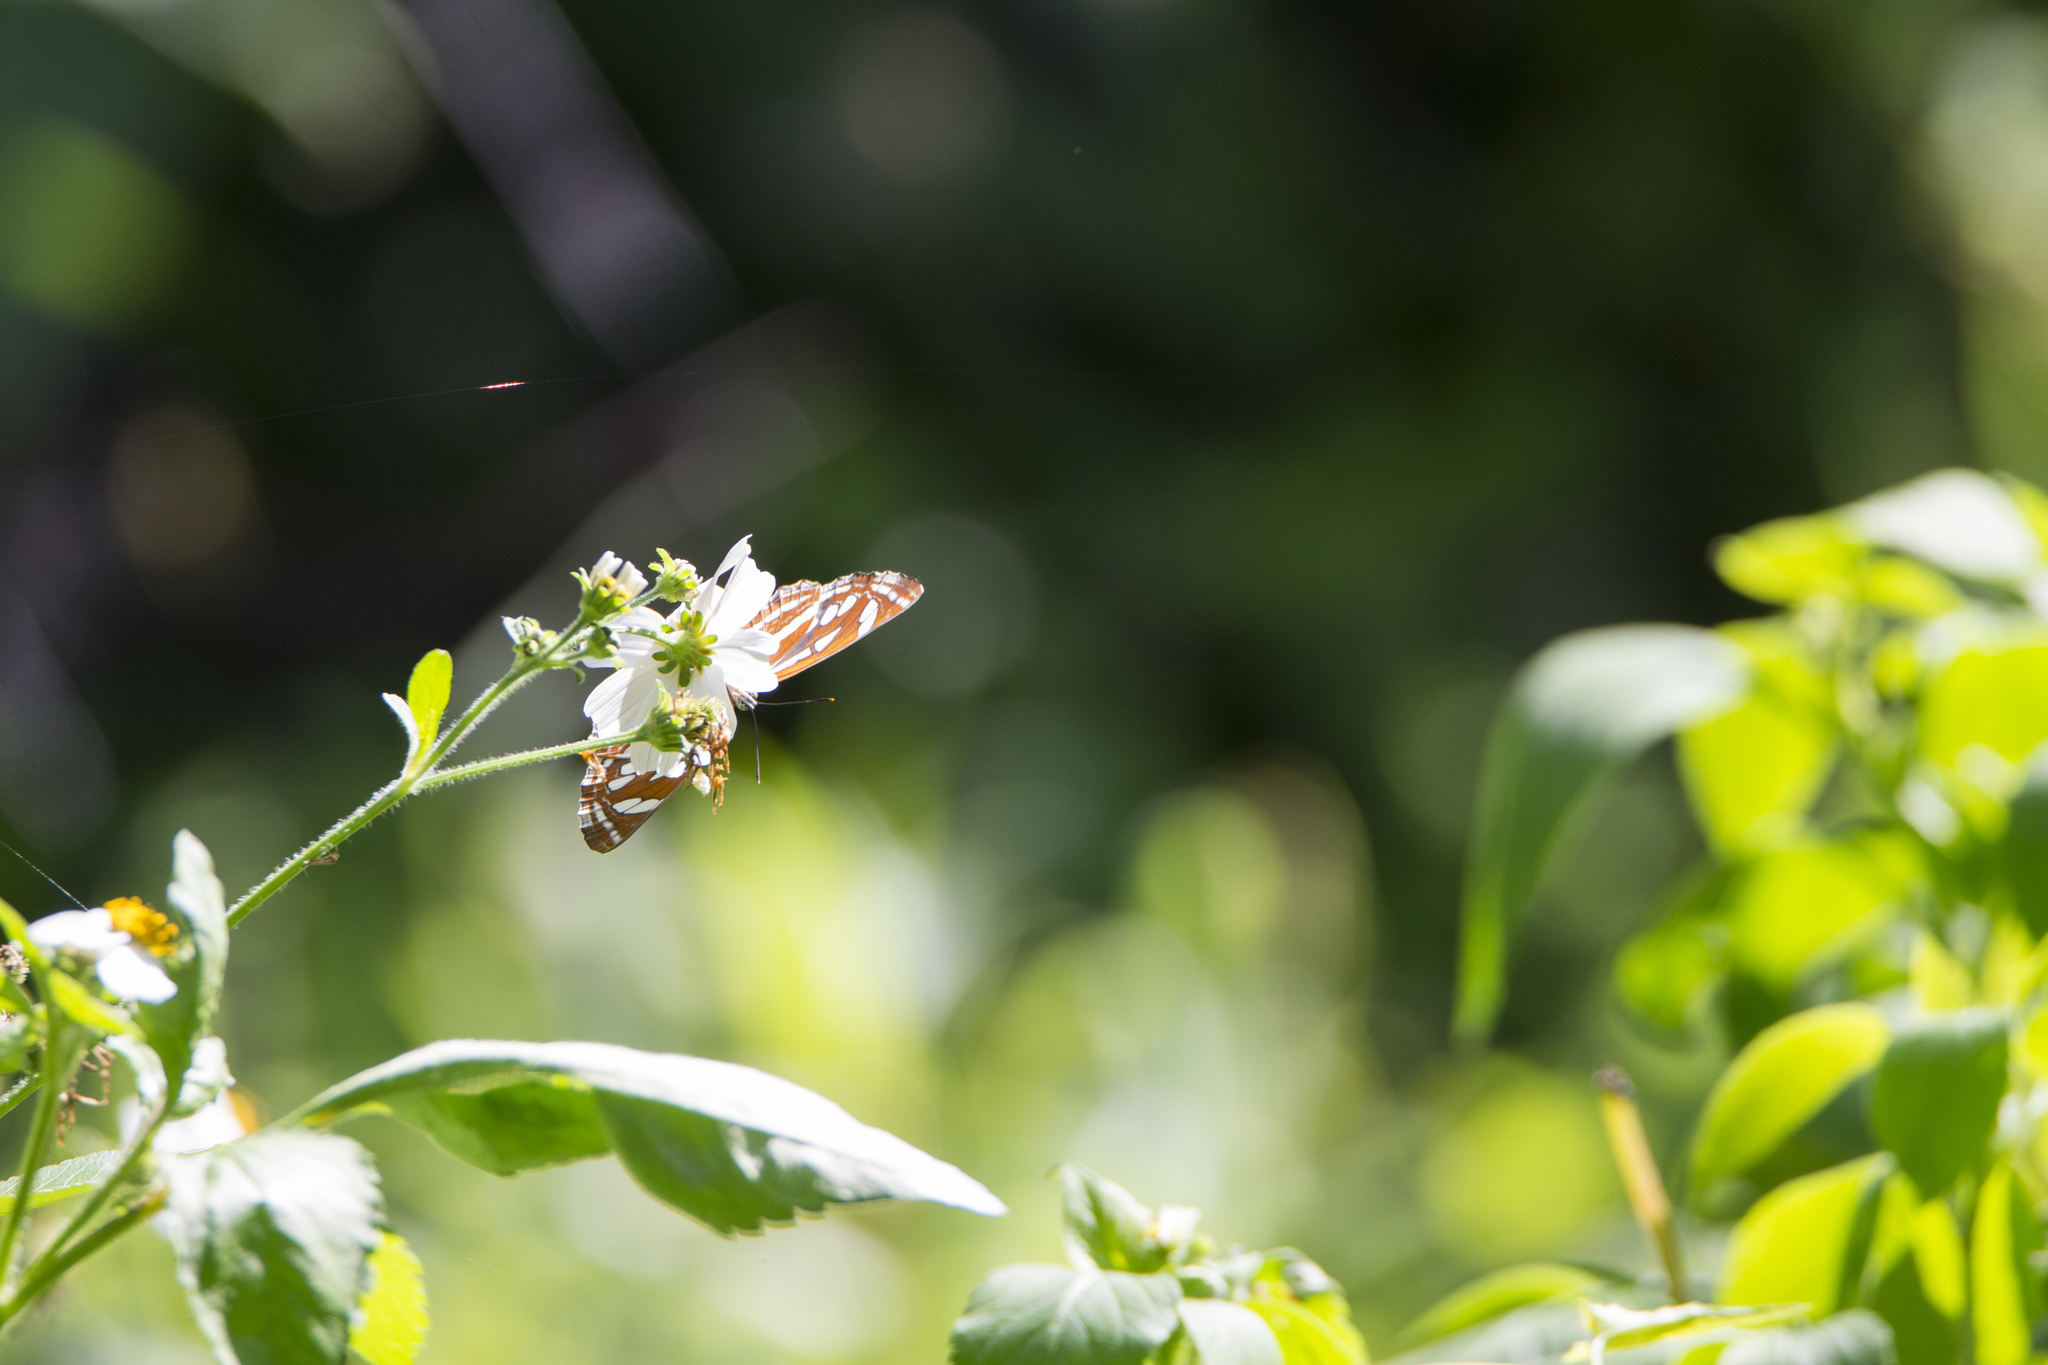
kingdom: Animalia
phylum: Arthropoda
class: Insecta
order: Lepidoptera
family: Nymphalidae
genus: Neptis
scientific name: Neptis hylas
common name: Common sailer
